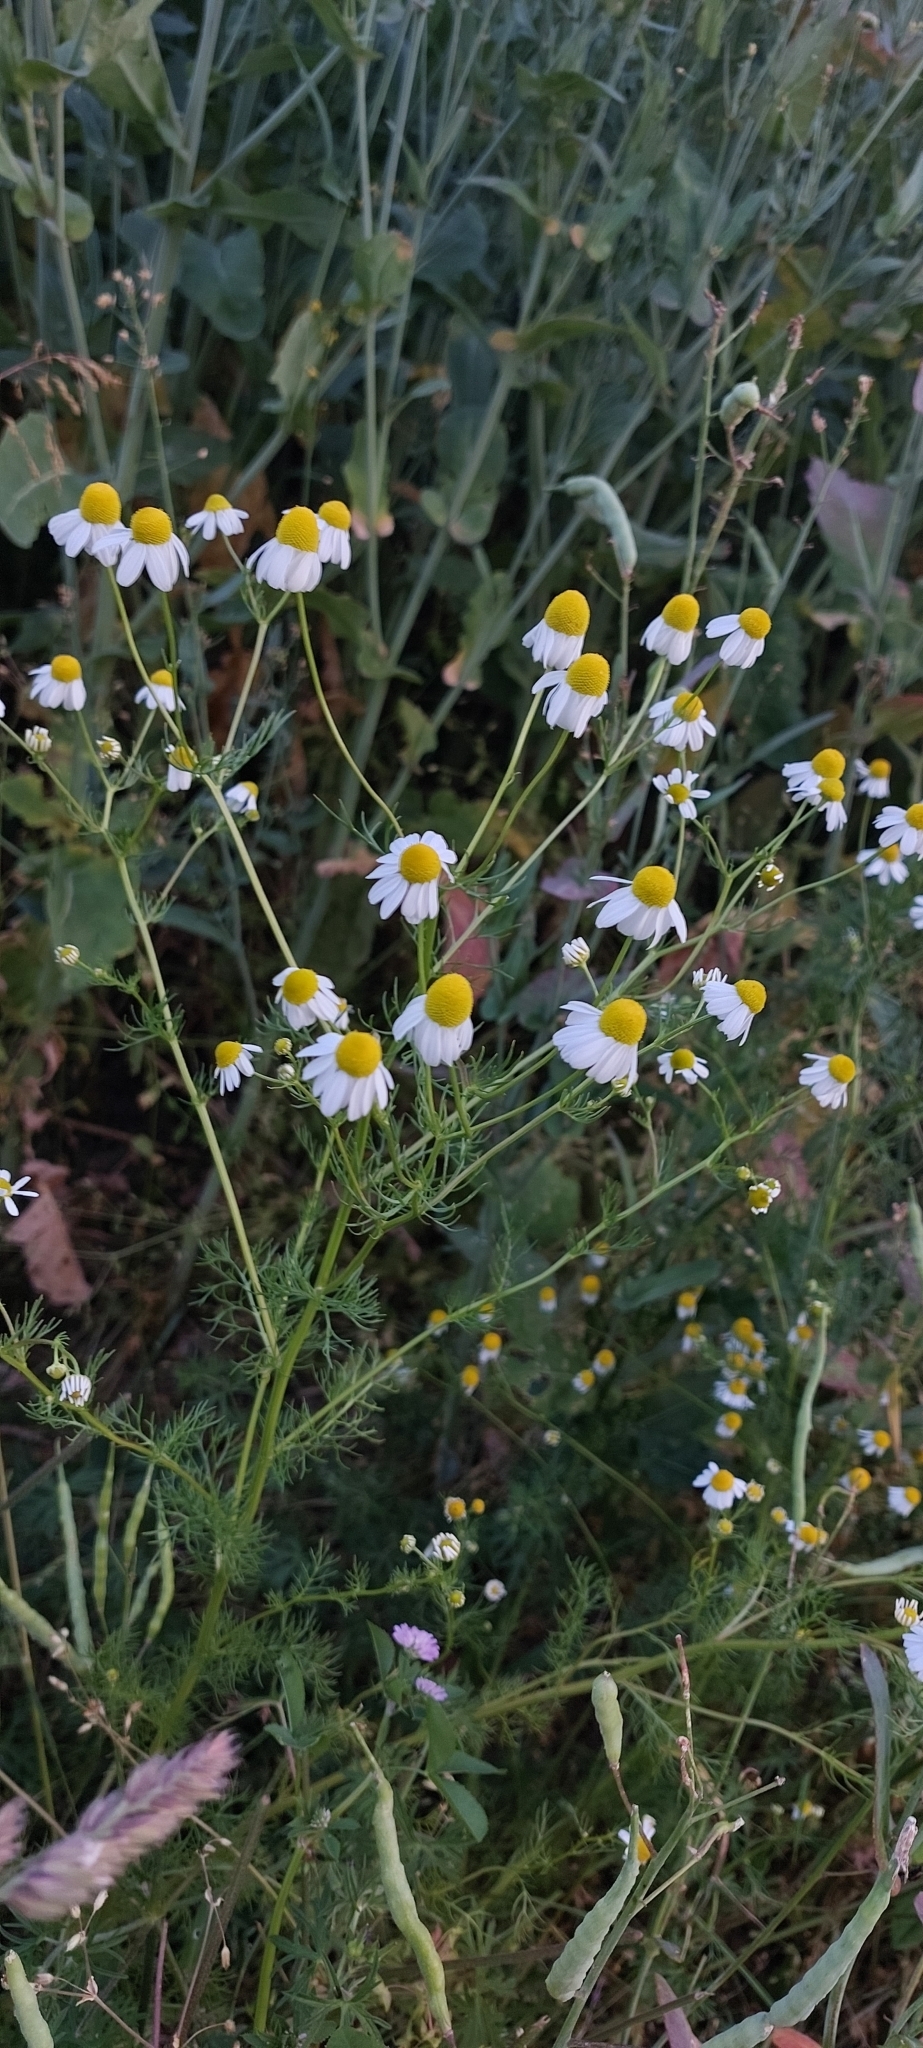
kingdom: Plantae
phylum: Tracheophyta
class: Magnoliopsida
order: Asterales
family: Asteraceae
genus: Matricaria
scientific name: Matricaria chamomilla
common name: Scented mayweed
